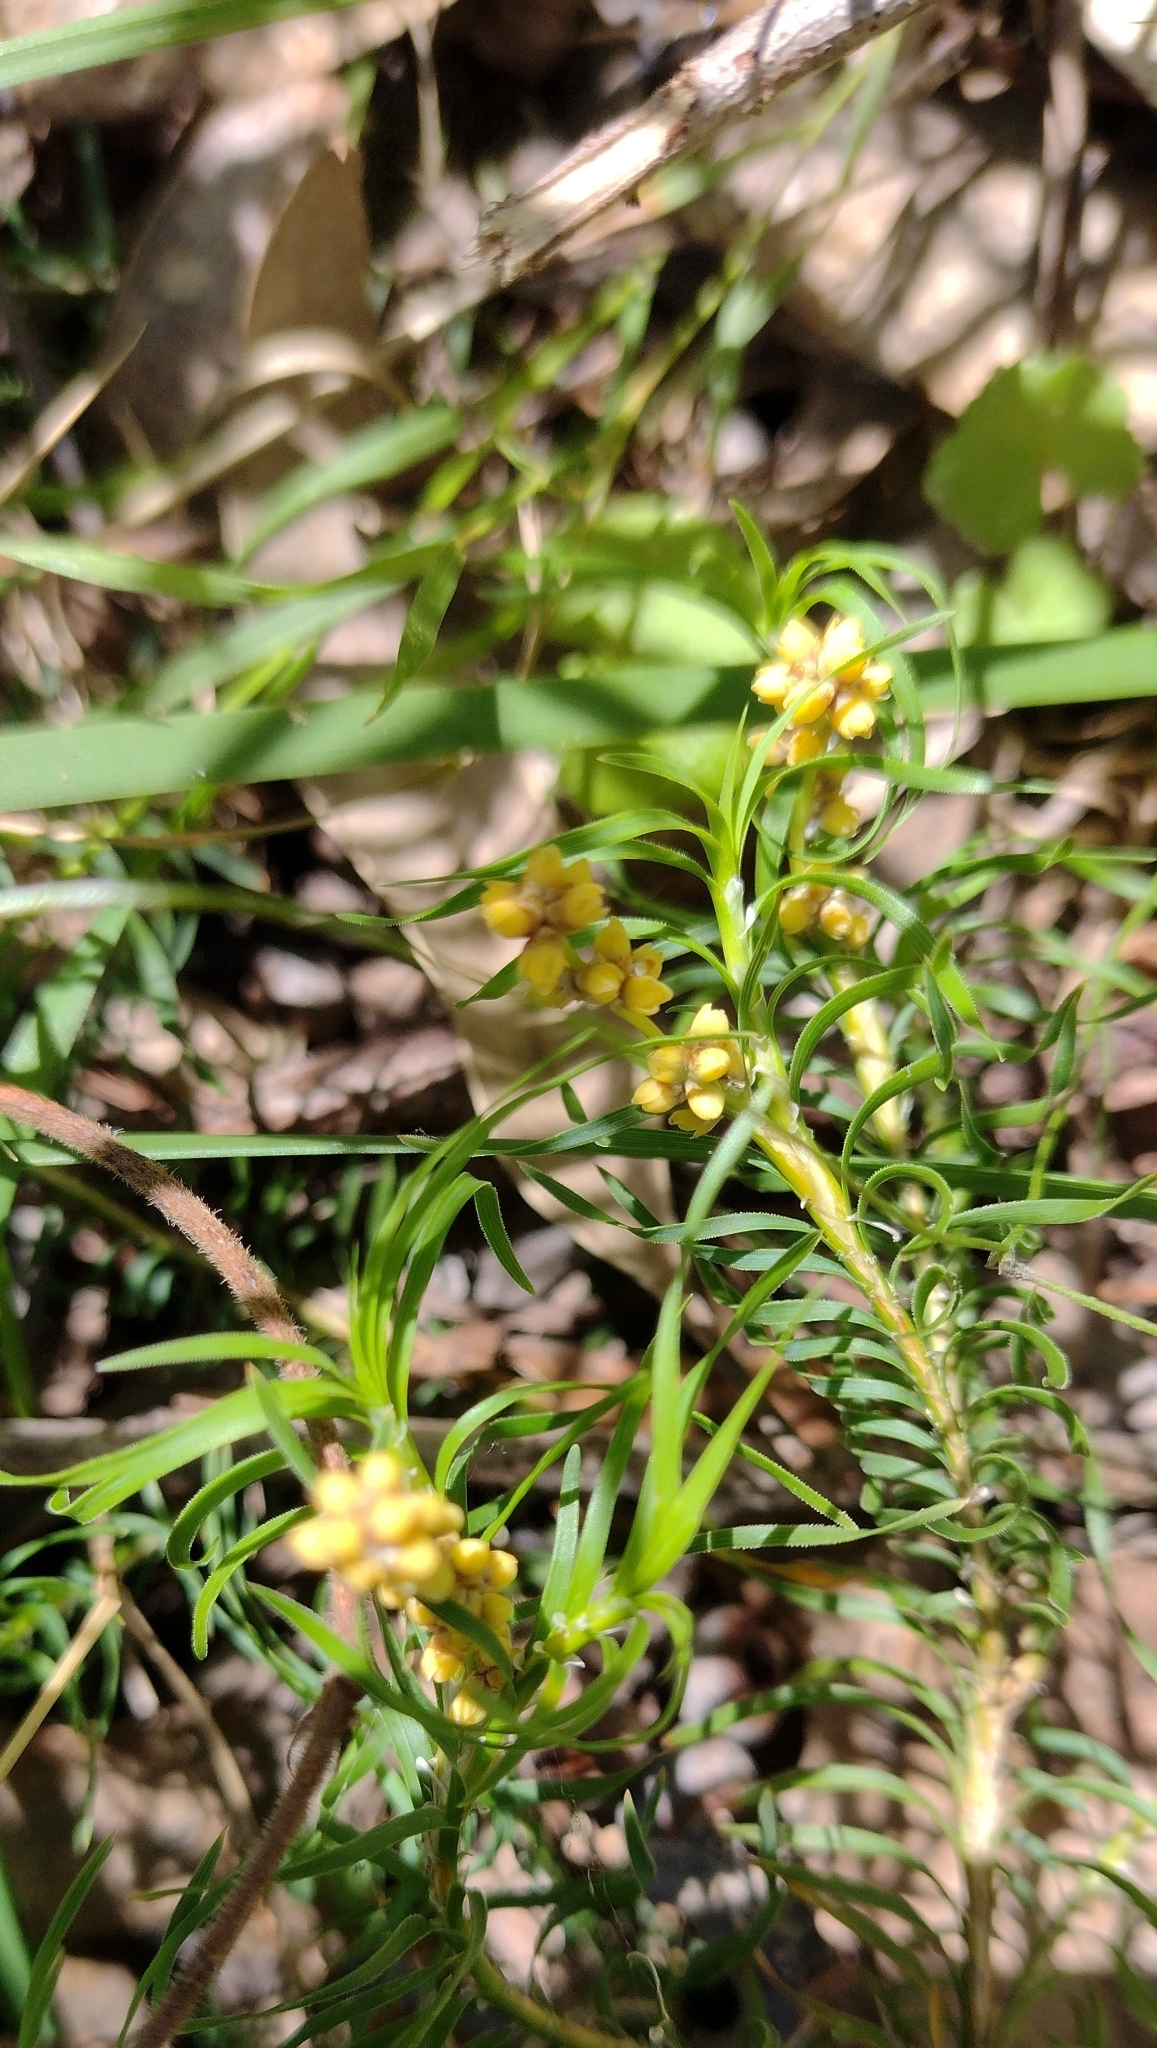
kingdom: Plantae
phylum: Tracheophyta
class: Liliopsida
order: Asparagales
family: Asparagaceae
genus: Lomandra
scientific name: Lomandra obliqua
